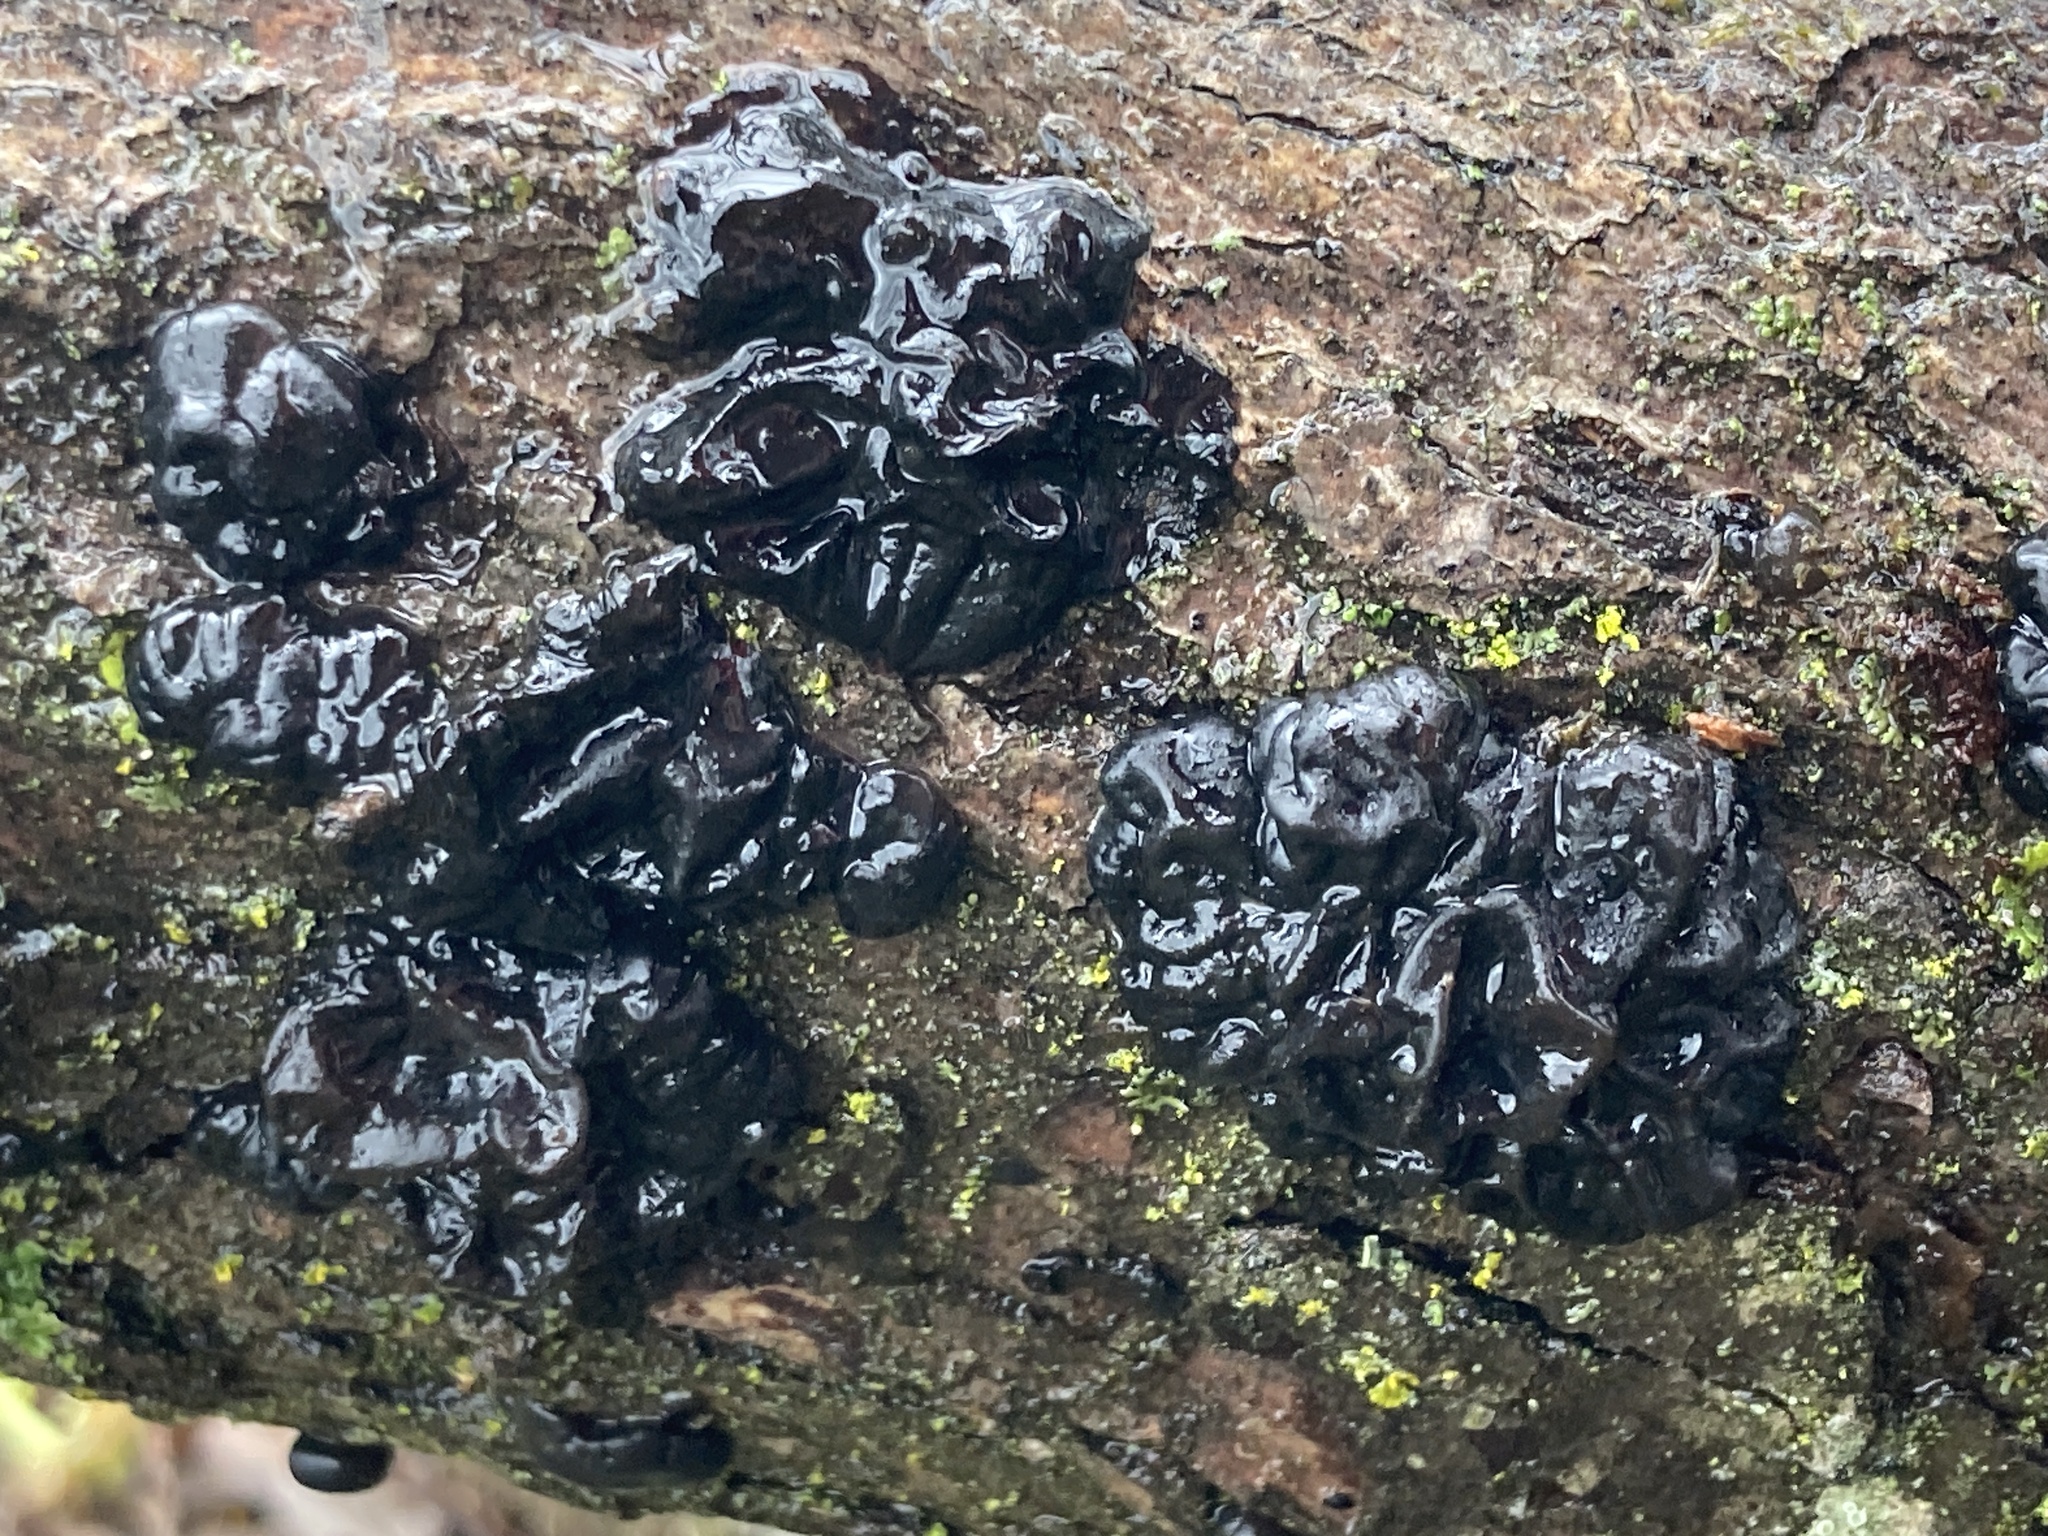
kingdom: Fungi
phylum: Basidiomycota
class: Agaricomycetes
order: Auriculariales
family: Auriculariaceae
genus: Exidia
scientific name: Exidia glandulosa
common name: Witches' butter
